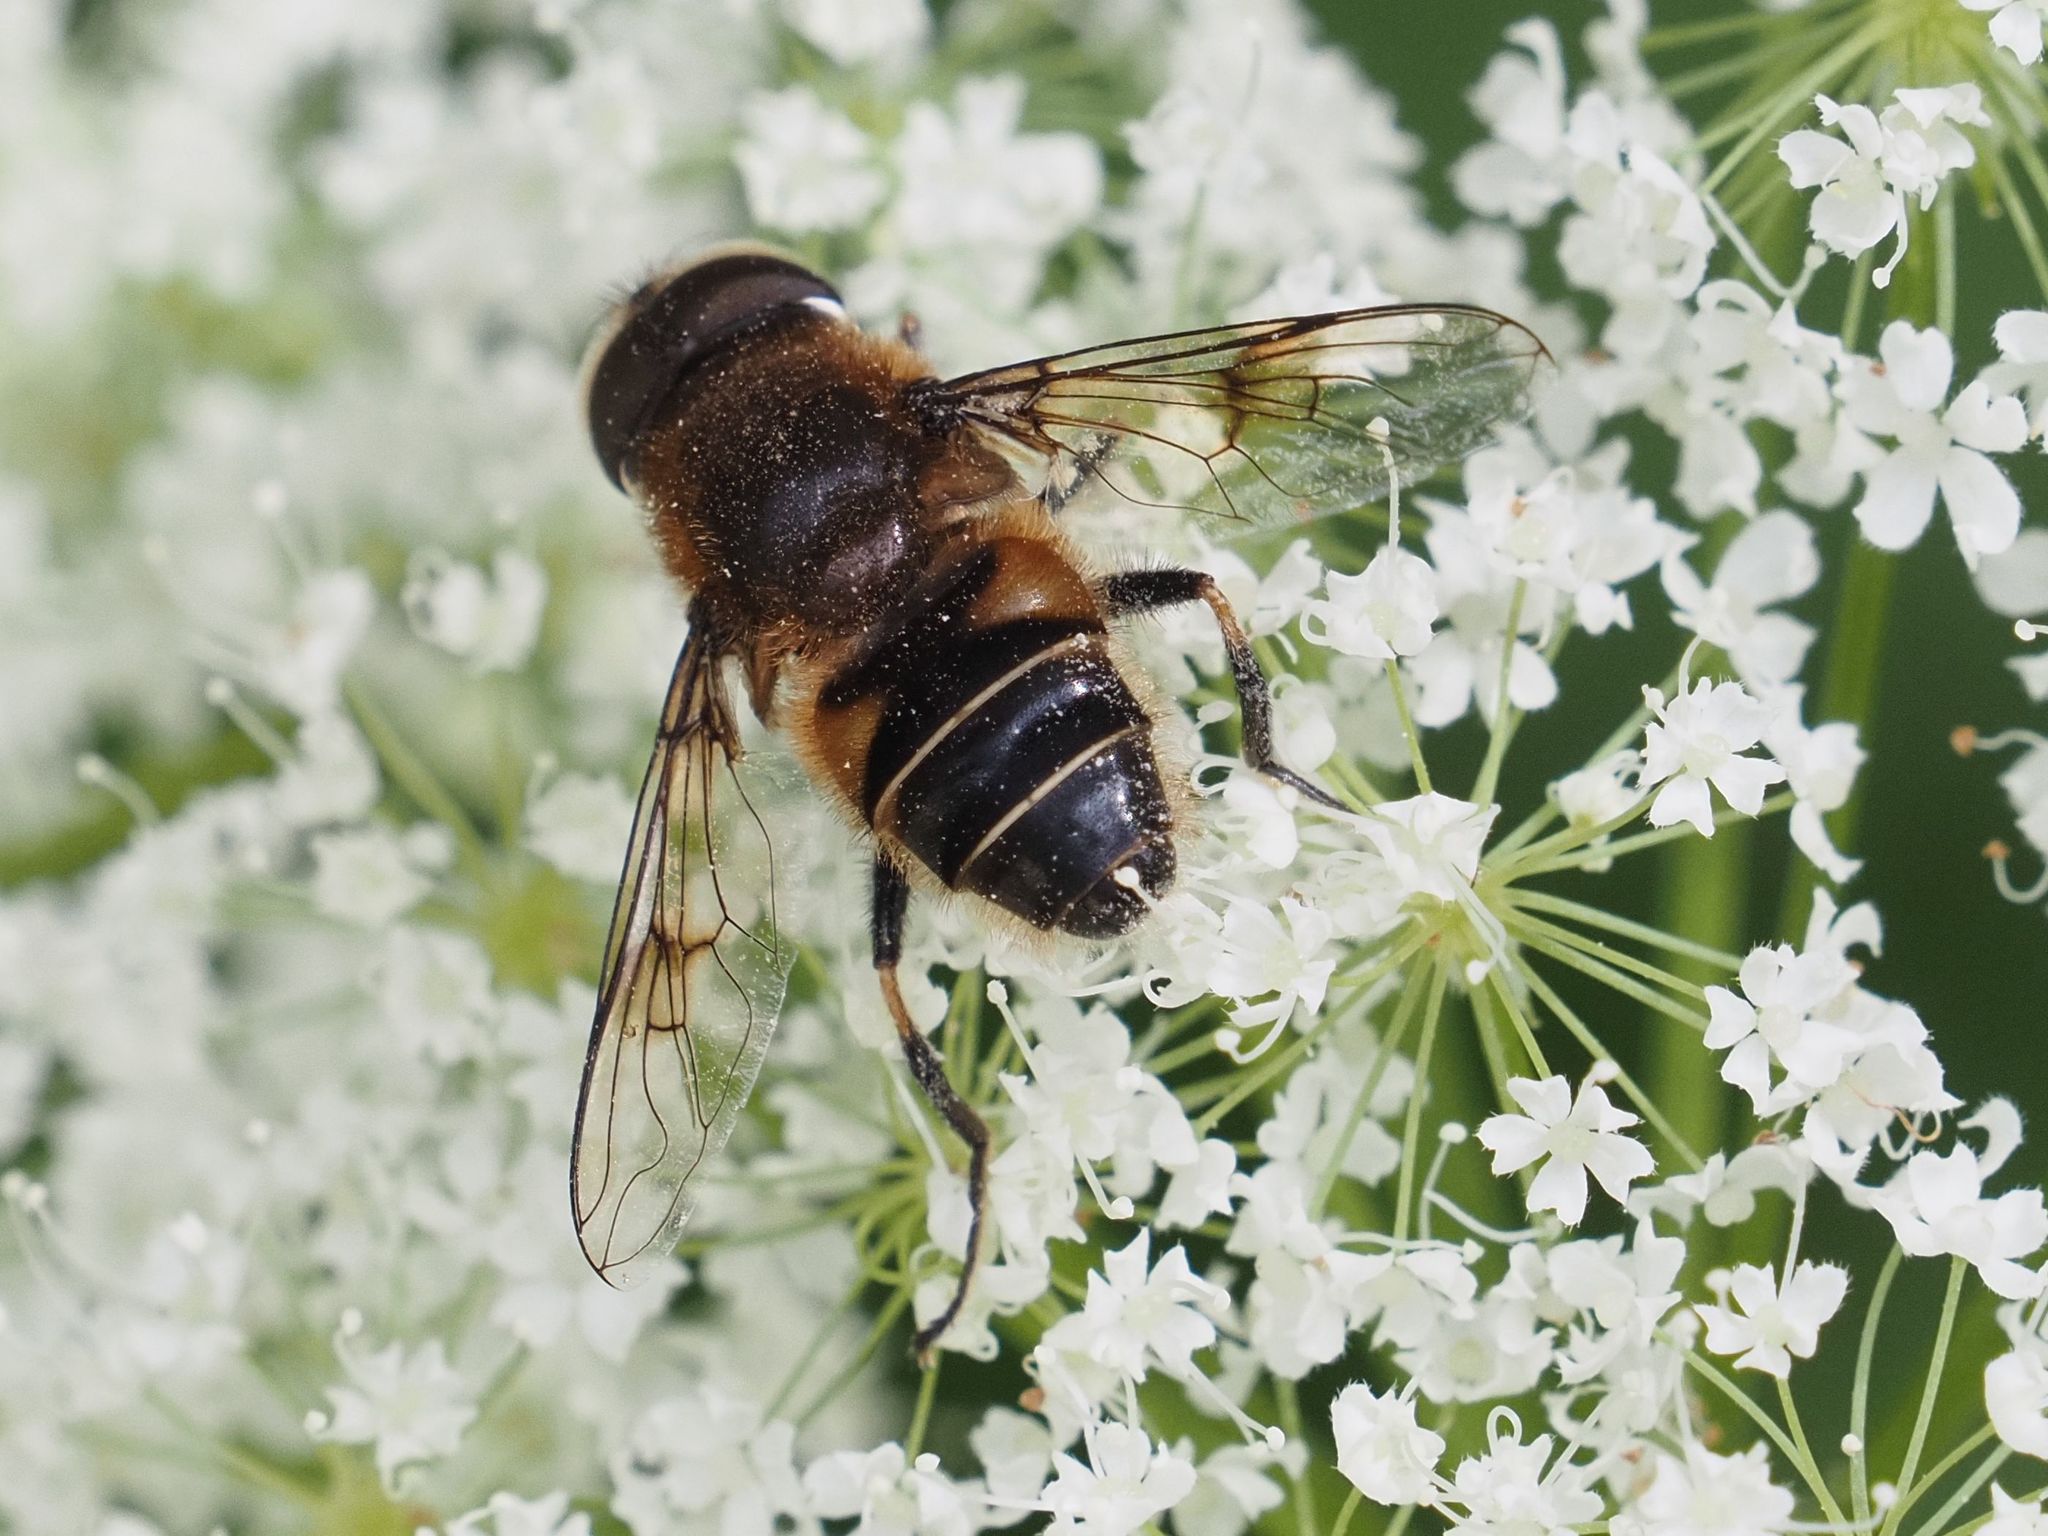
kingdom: Animalia
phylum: Arthropoda
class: Insecta
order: Diptera
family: Syrphidae
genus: Eristalis
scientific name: Eristalis rupium
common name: Hover fly
